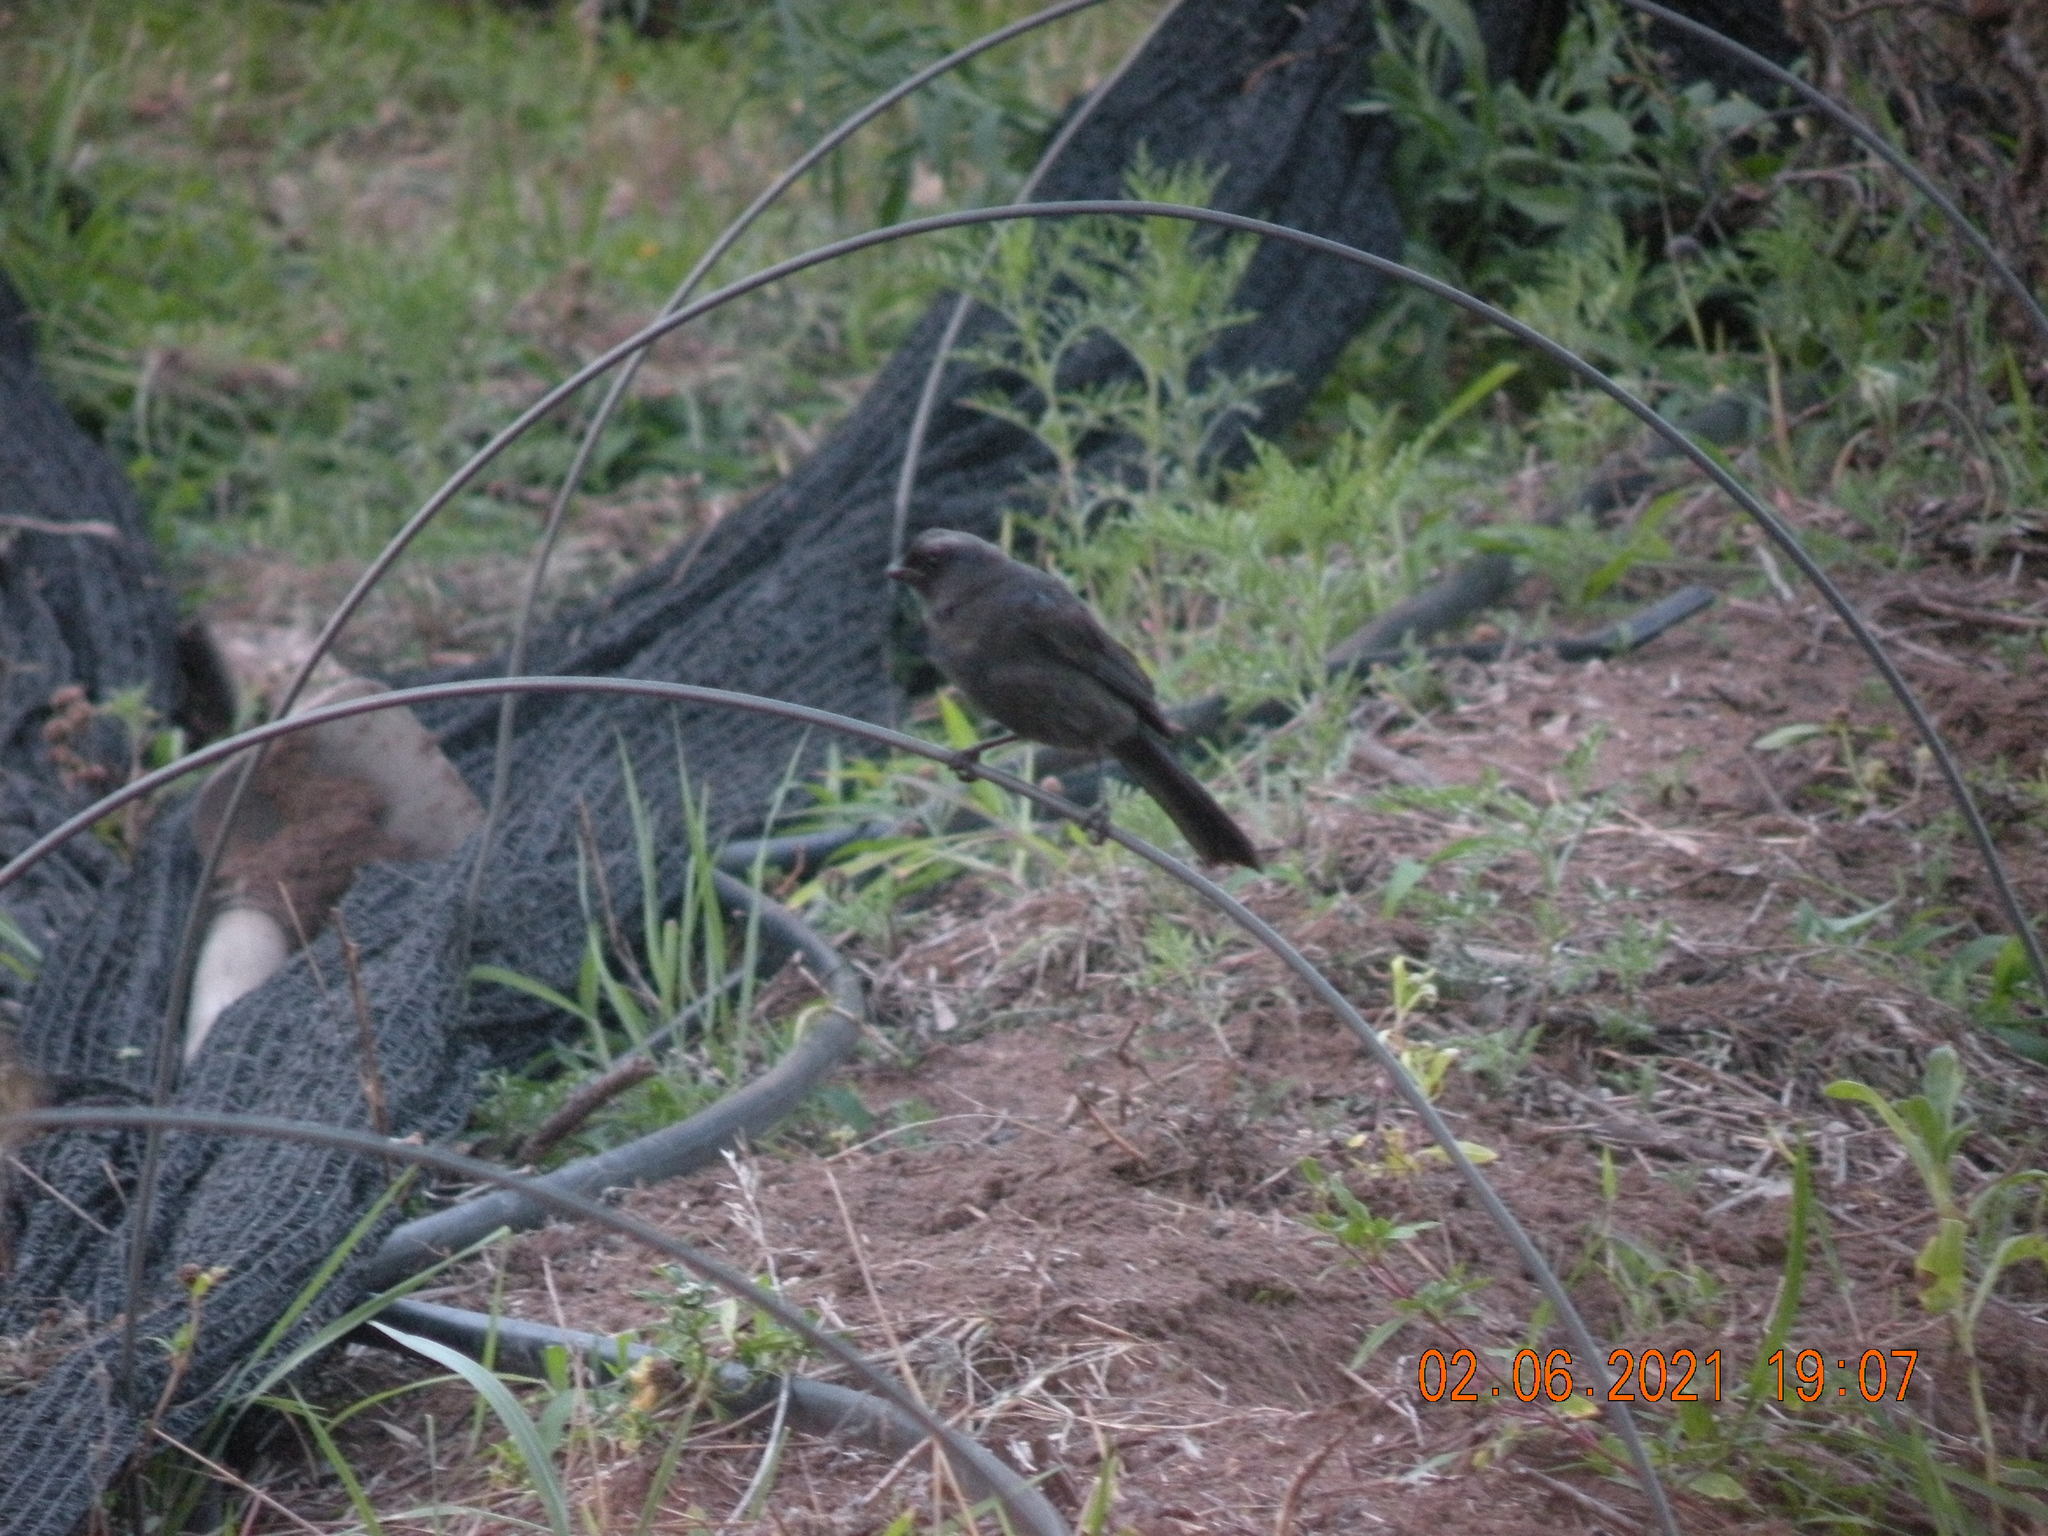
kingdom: Animalia
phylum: Chordata
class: Aves
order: Passeriformes
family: Thraupidae
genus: Stephanophorus
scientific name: Stephanophorus diadematus
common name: Diademed tanager
